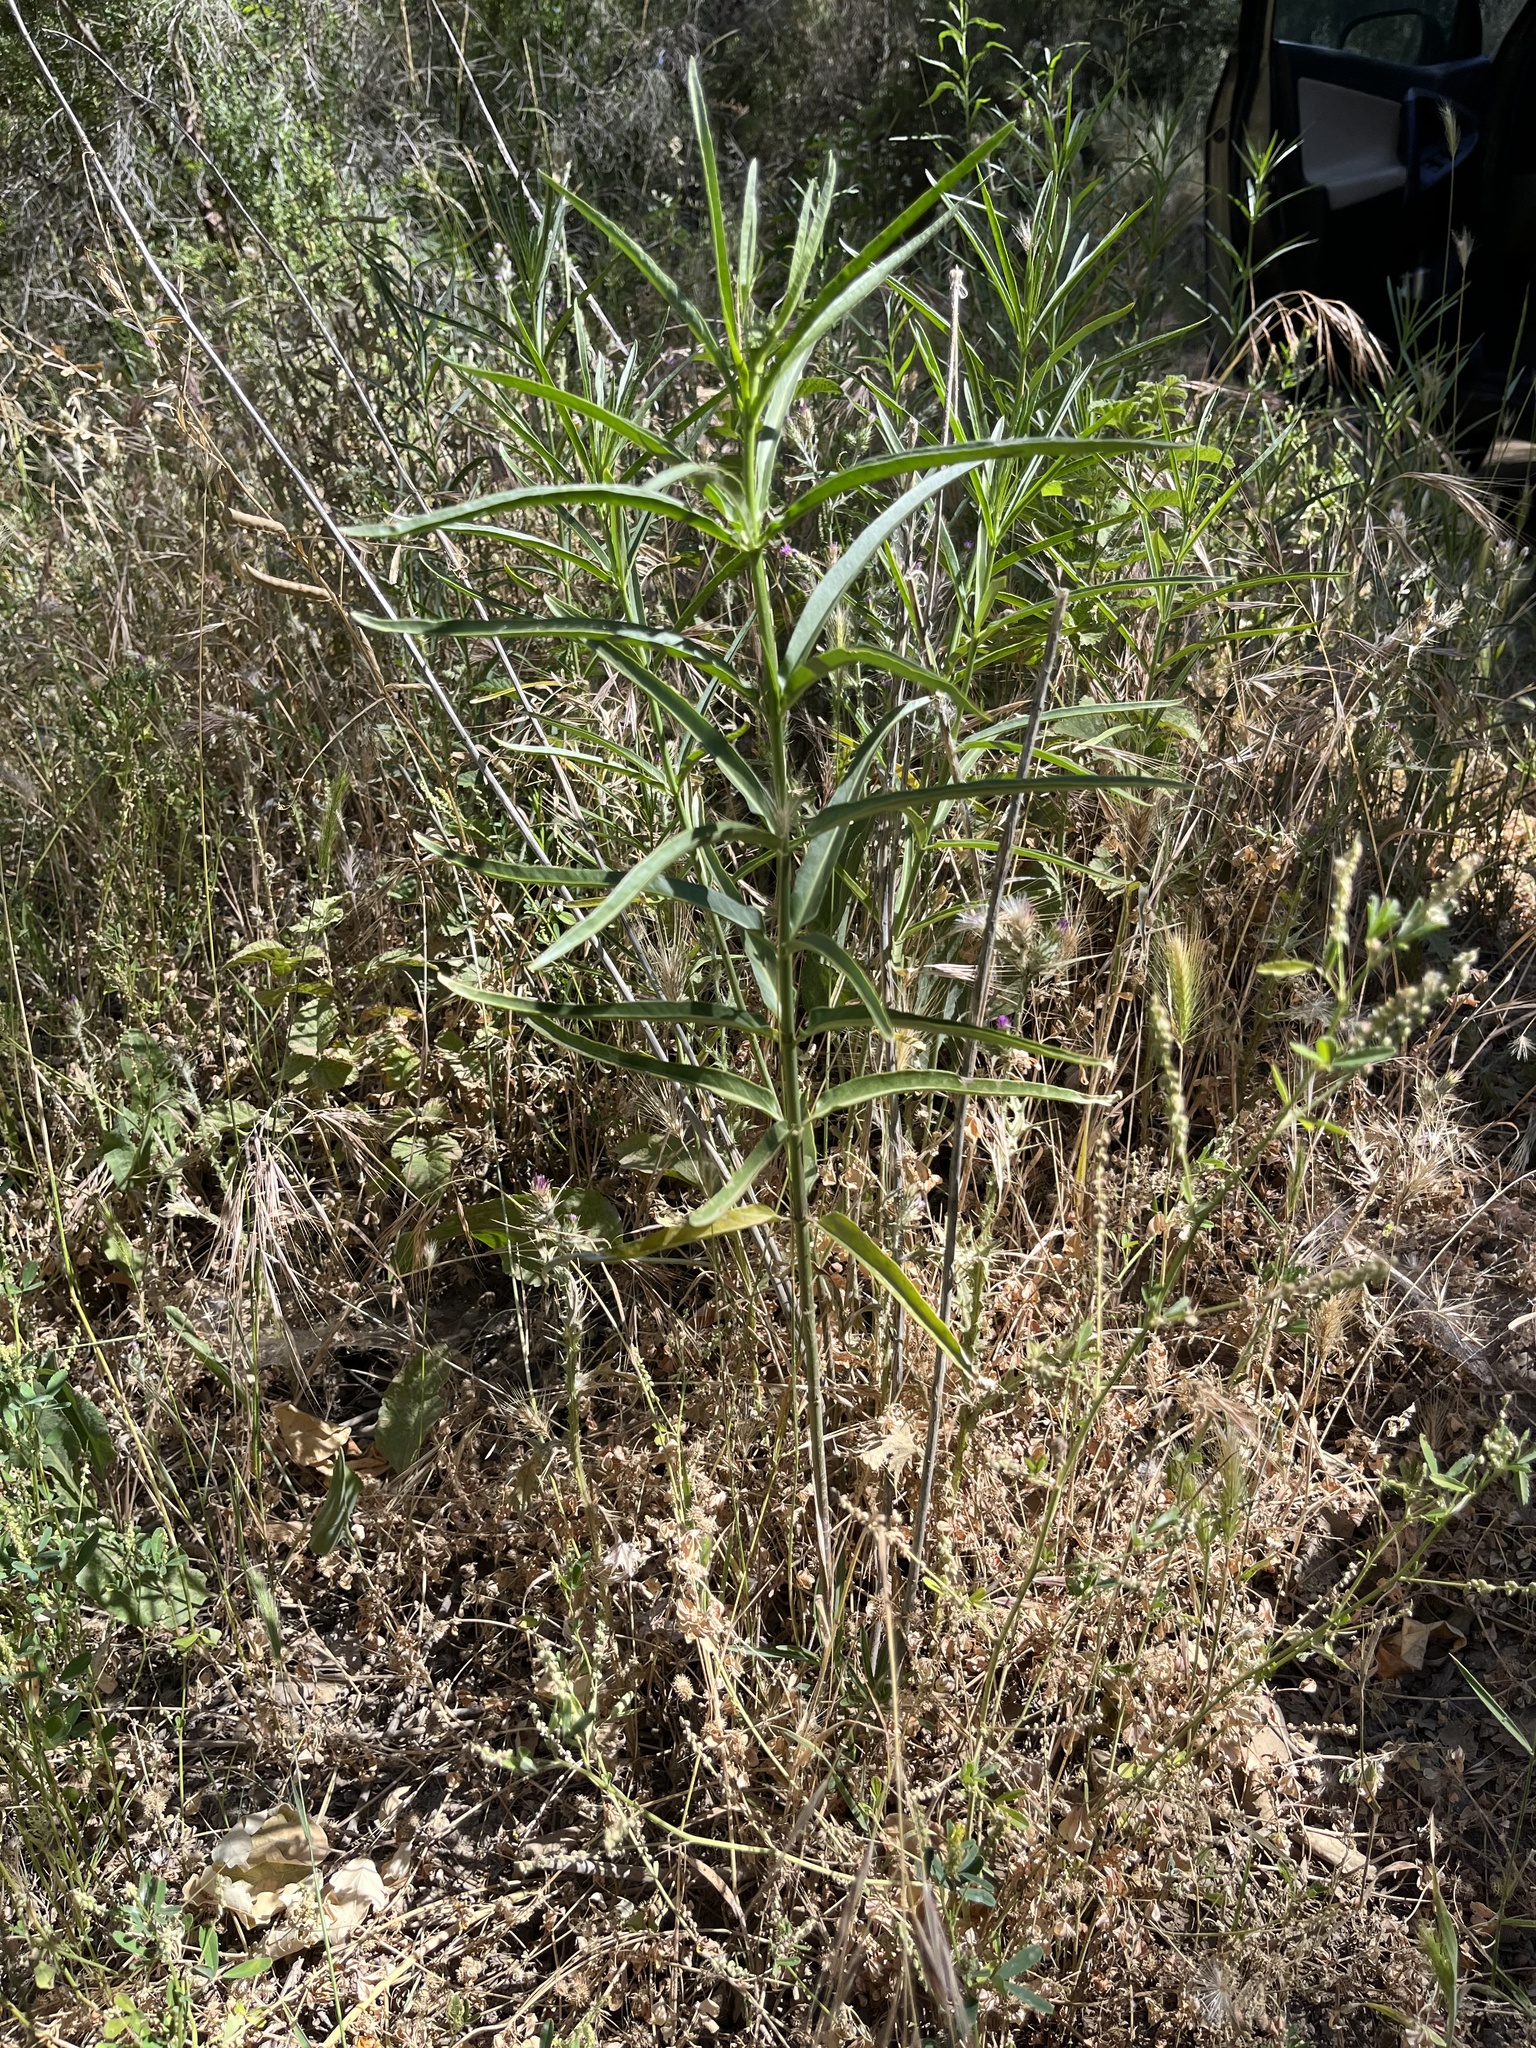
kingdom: Plantae
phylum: Tracheophyta
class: Magnoliopsida
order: Gentianales
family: Apocynaceae
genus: Asclepias
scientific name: Asclepias fascicularis
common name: Mexican milkweed
